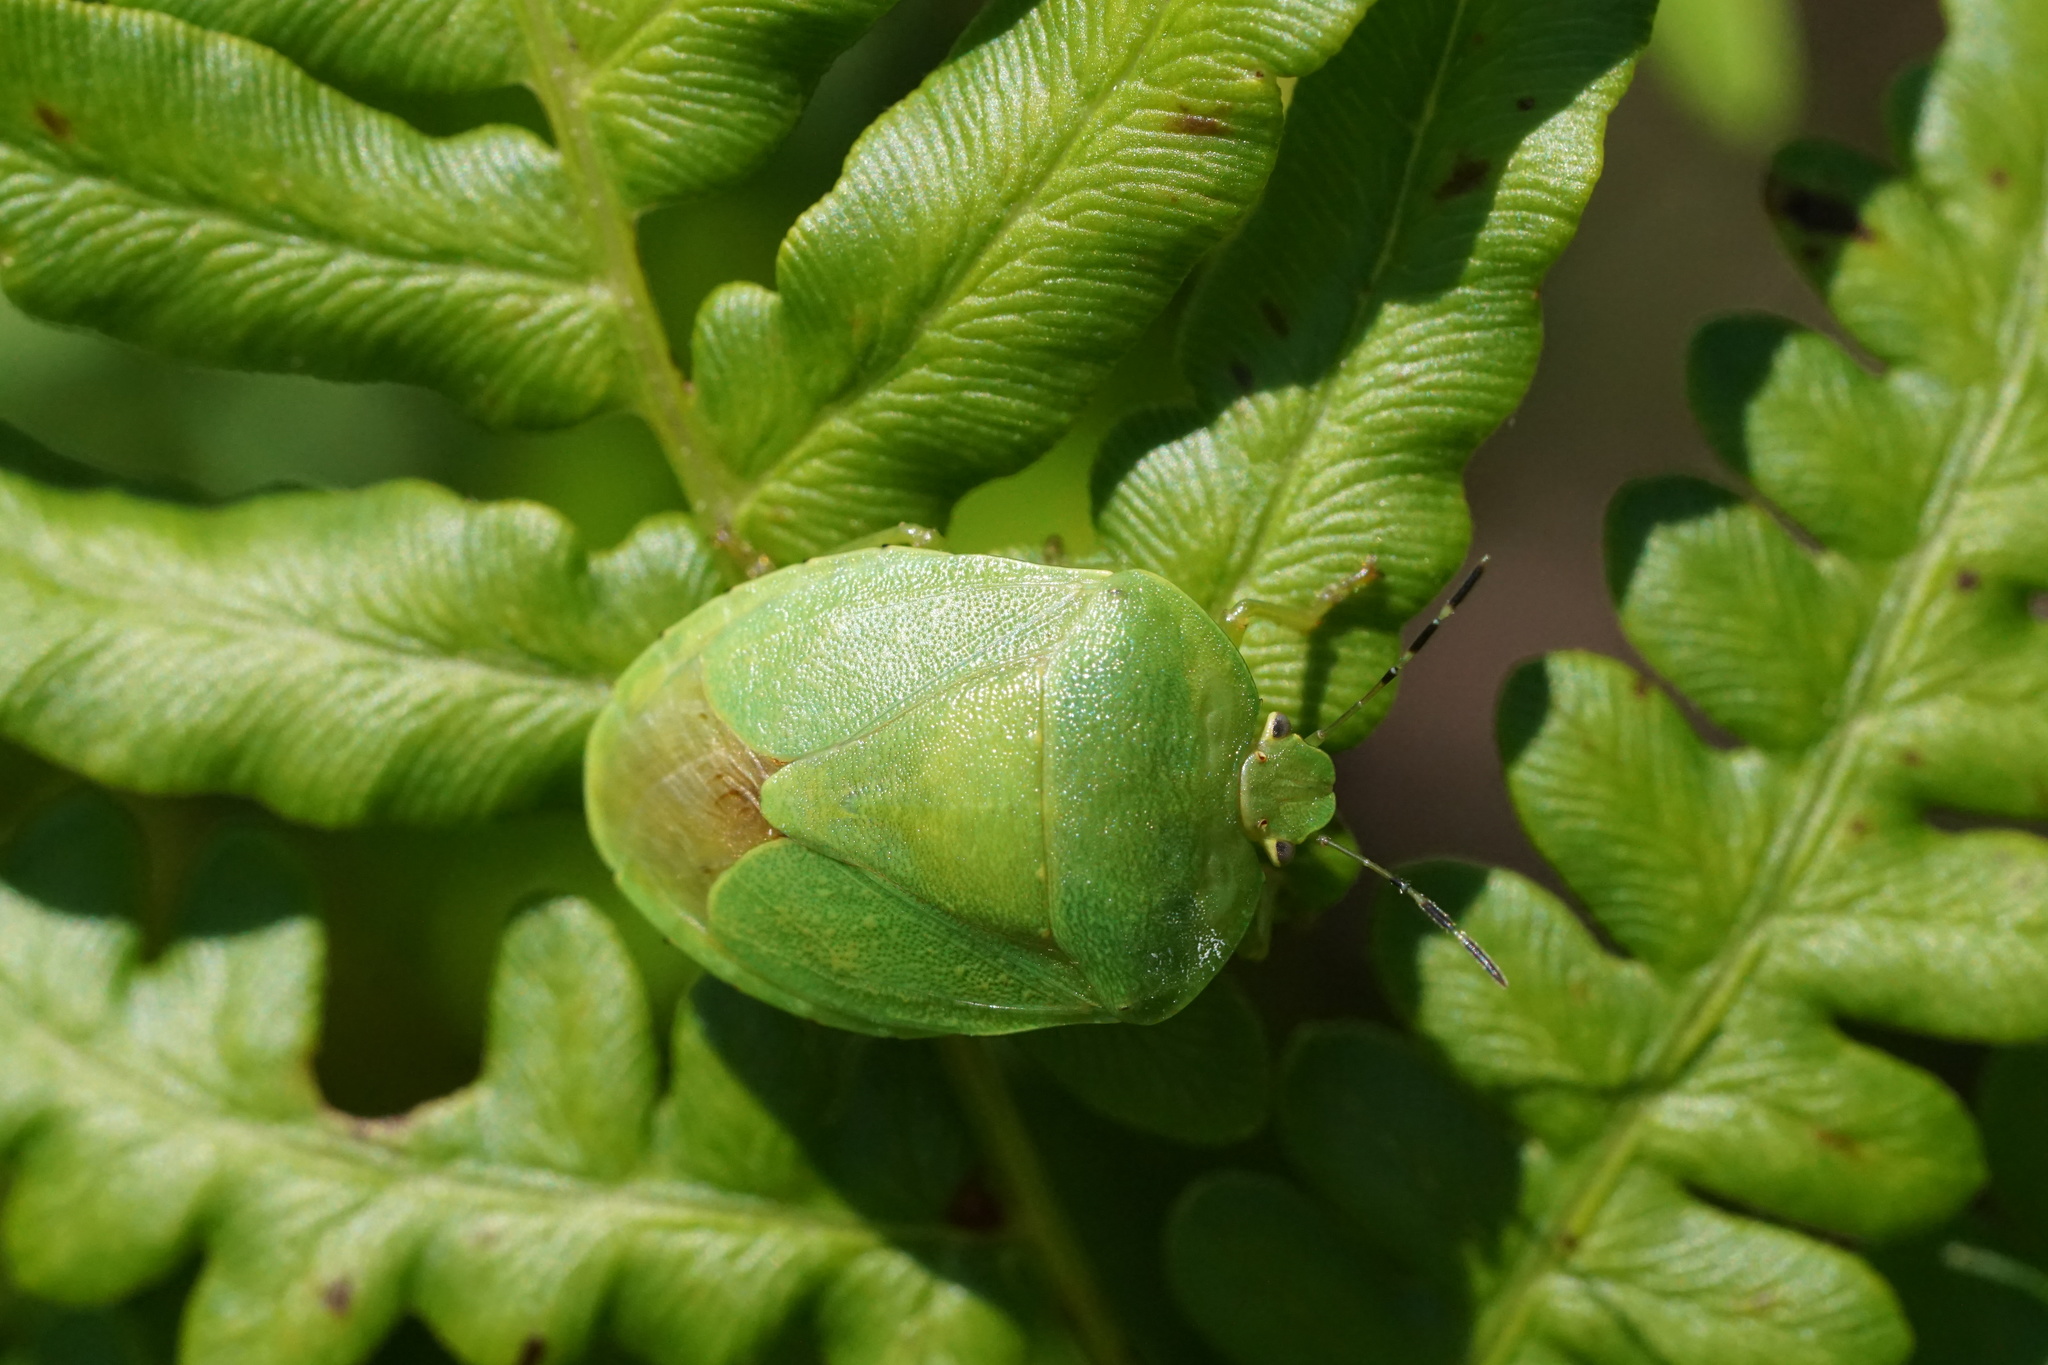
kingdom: Animalia
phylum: Arthropoda
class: Insecta
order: Hemiptera
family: Pentatomidae
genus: Chinavia
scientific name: Chinavia
